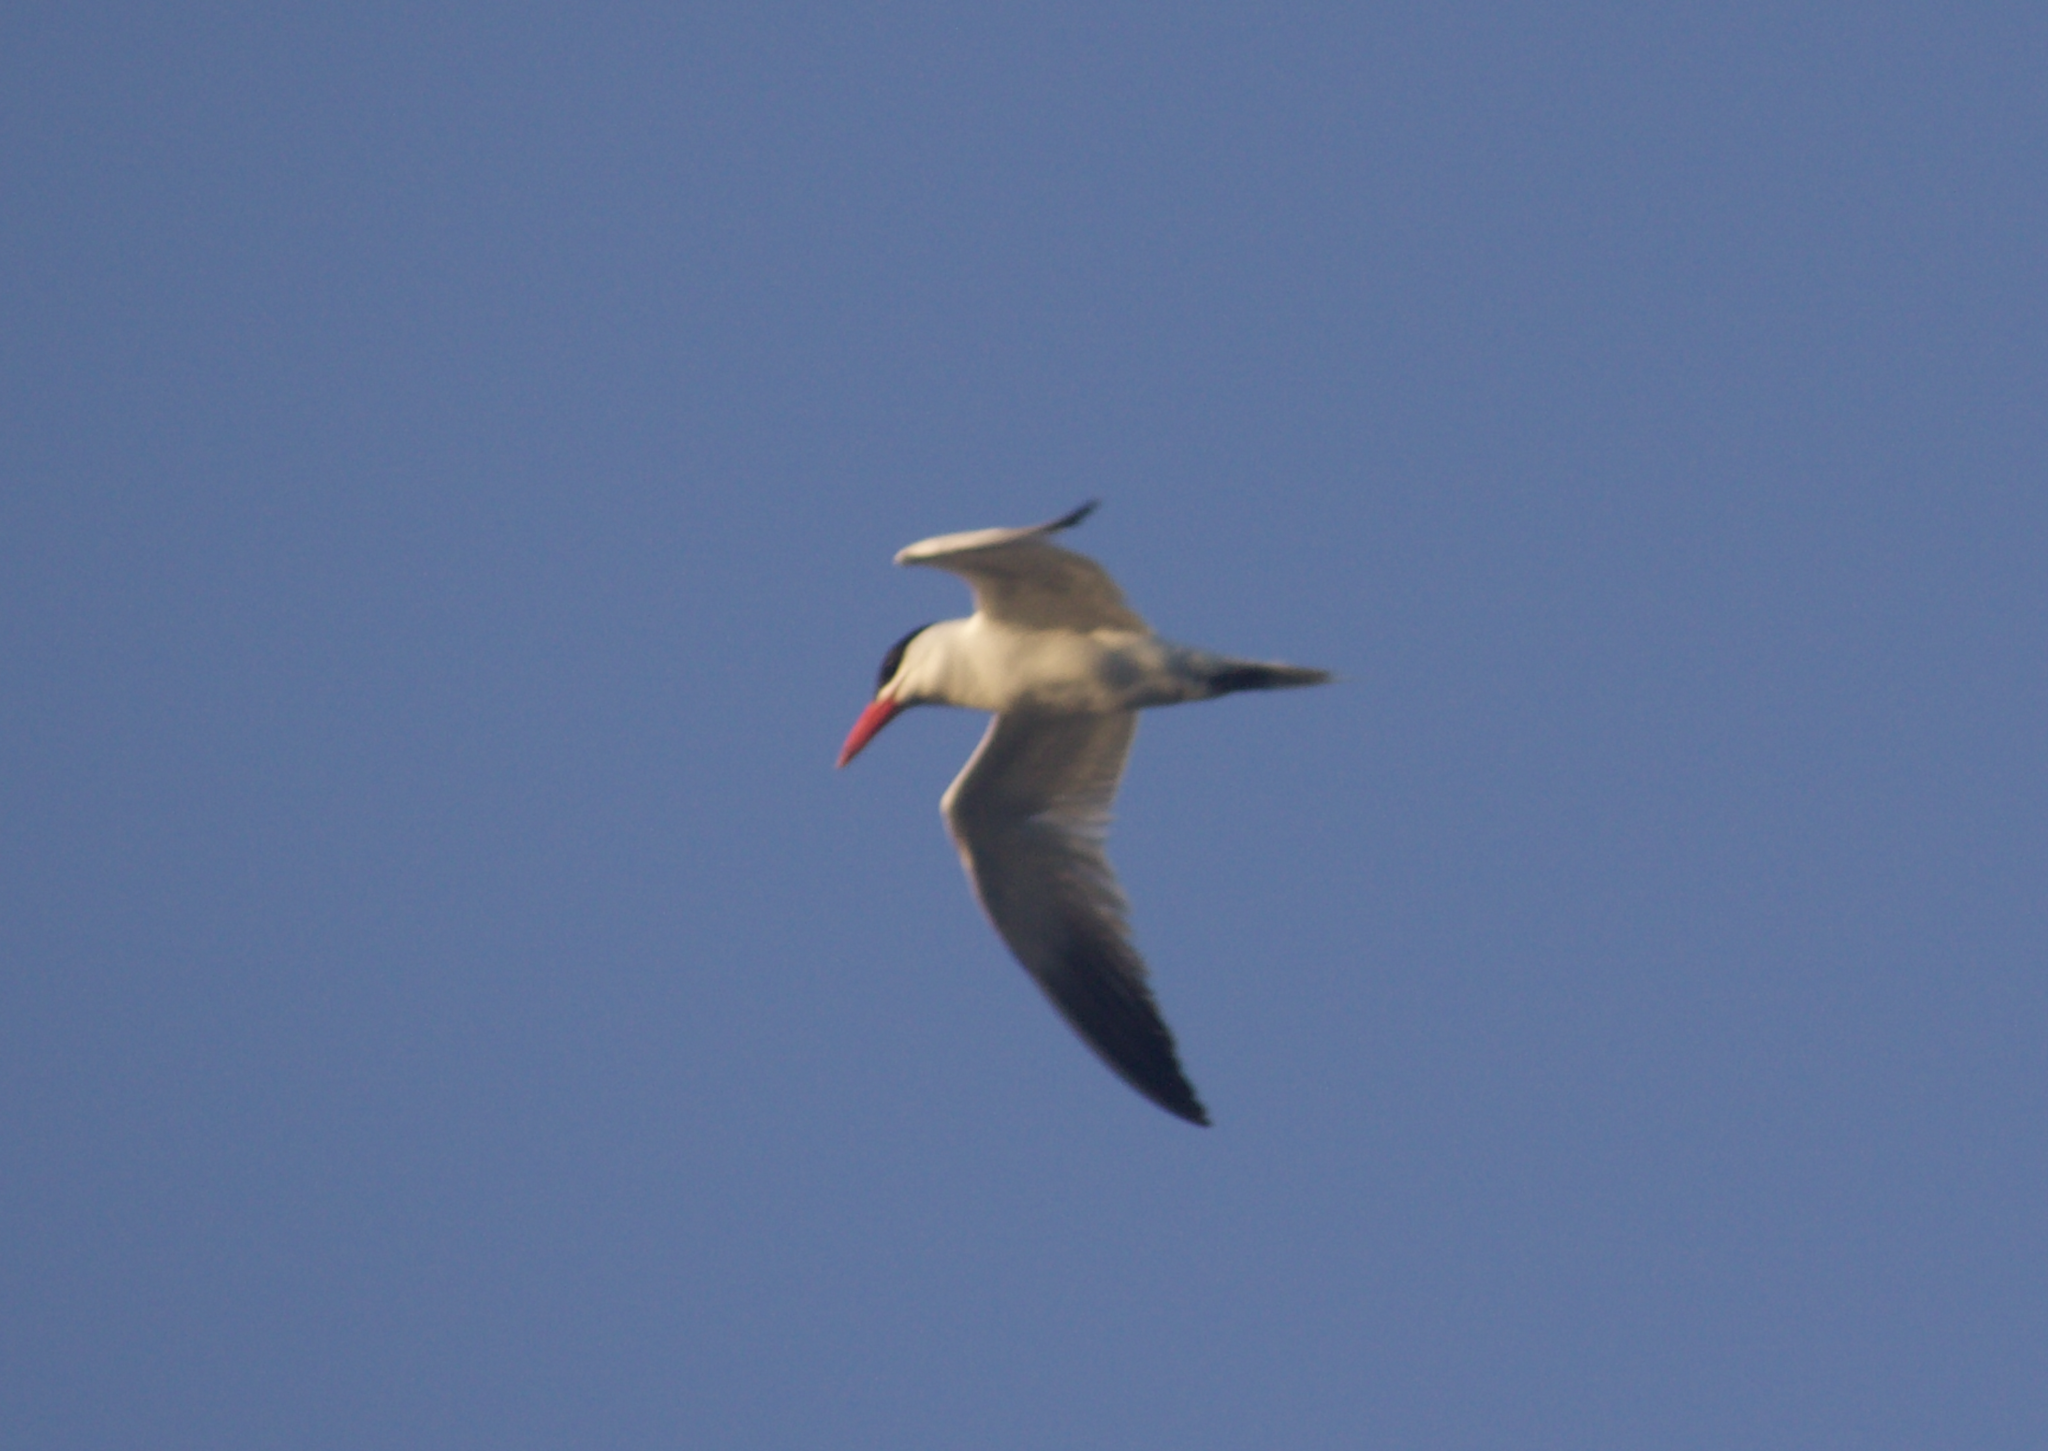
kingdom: Animalia
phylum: Chordata
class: Aves
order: Charadriiformes
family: Laridae
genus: Hydroprogne
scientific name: Hydroprogne caspia
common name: Caspian tern
